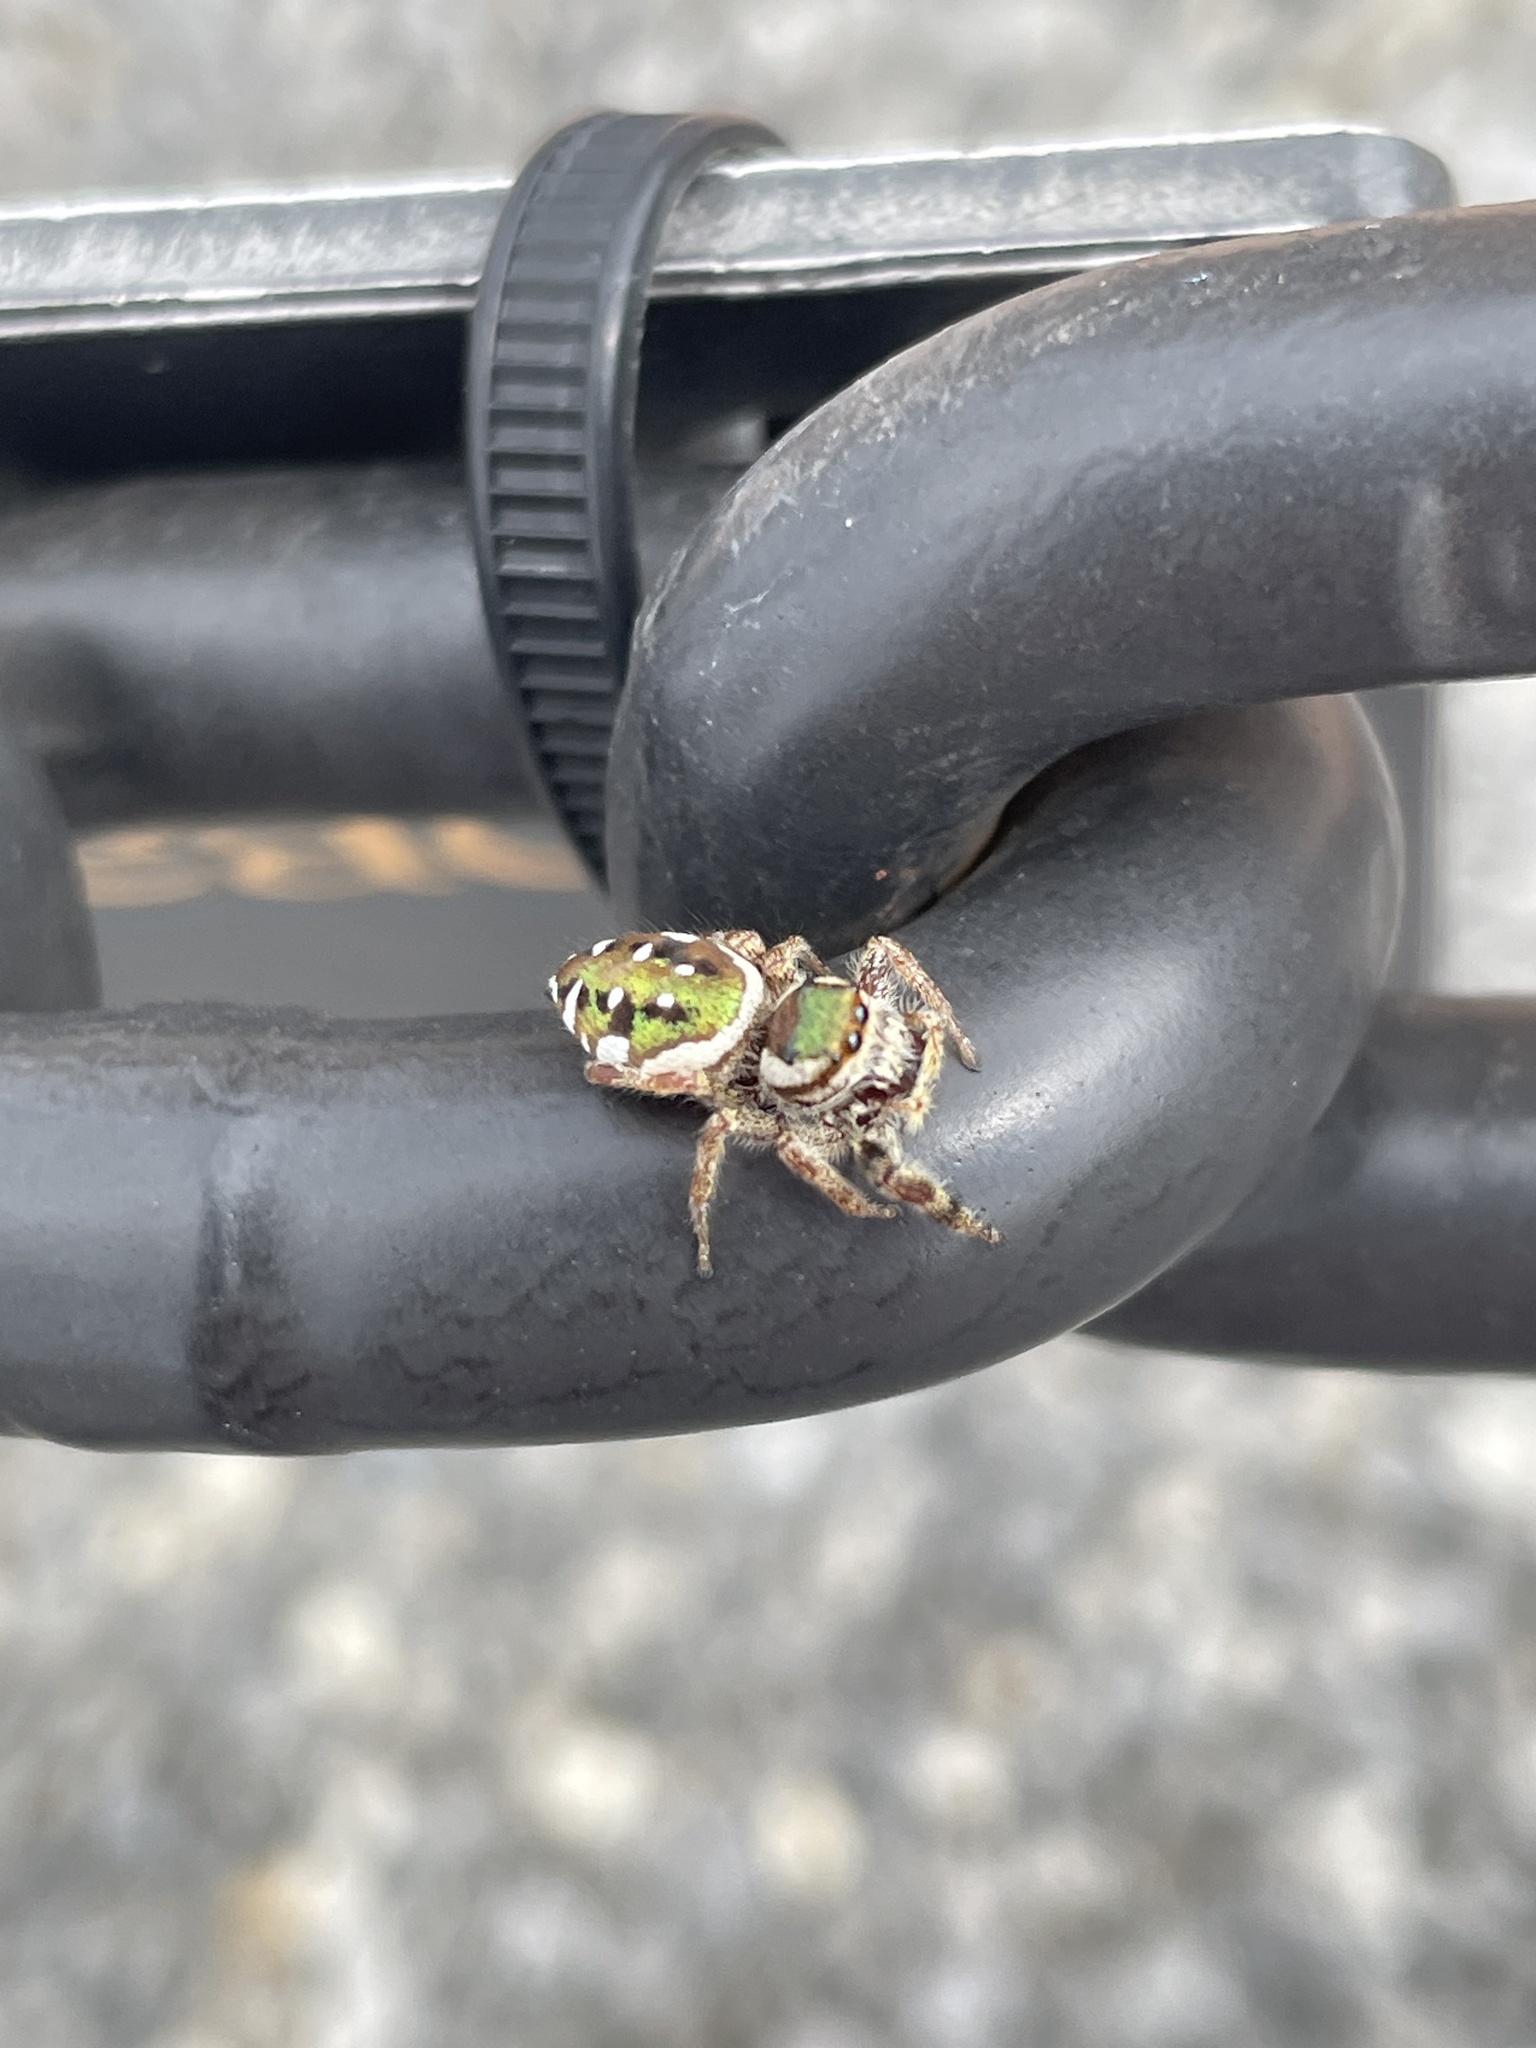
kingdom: Animalia
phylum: Arthropoda
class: Arachnida
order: Araneae
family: Salticidae
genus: Paraphidippus
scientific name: Paraphidippus aurantius
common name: Jumping spiders
